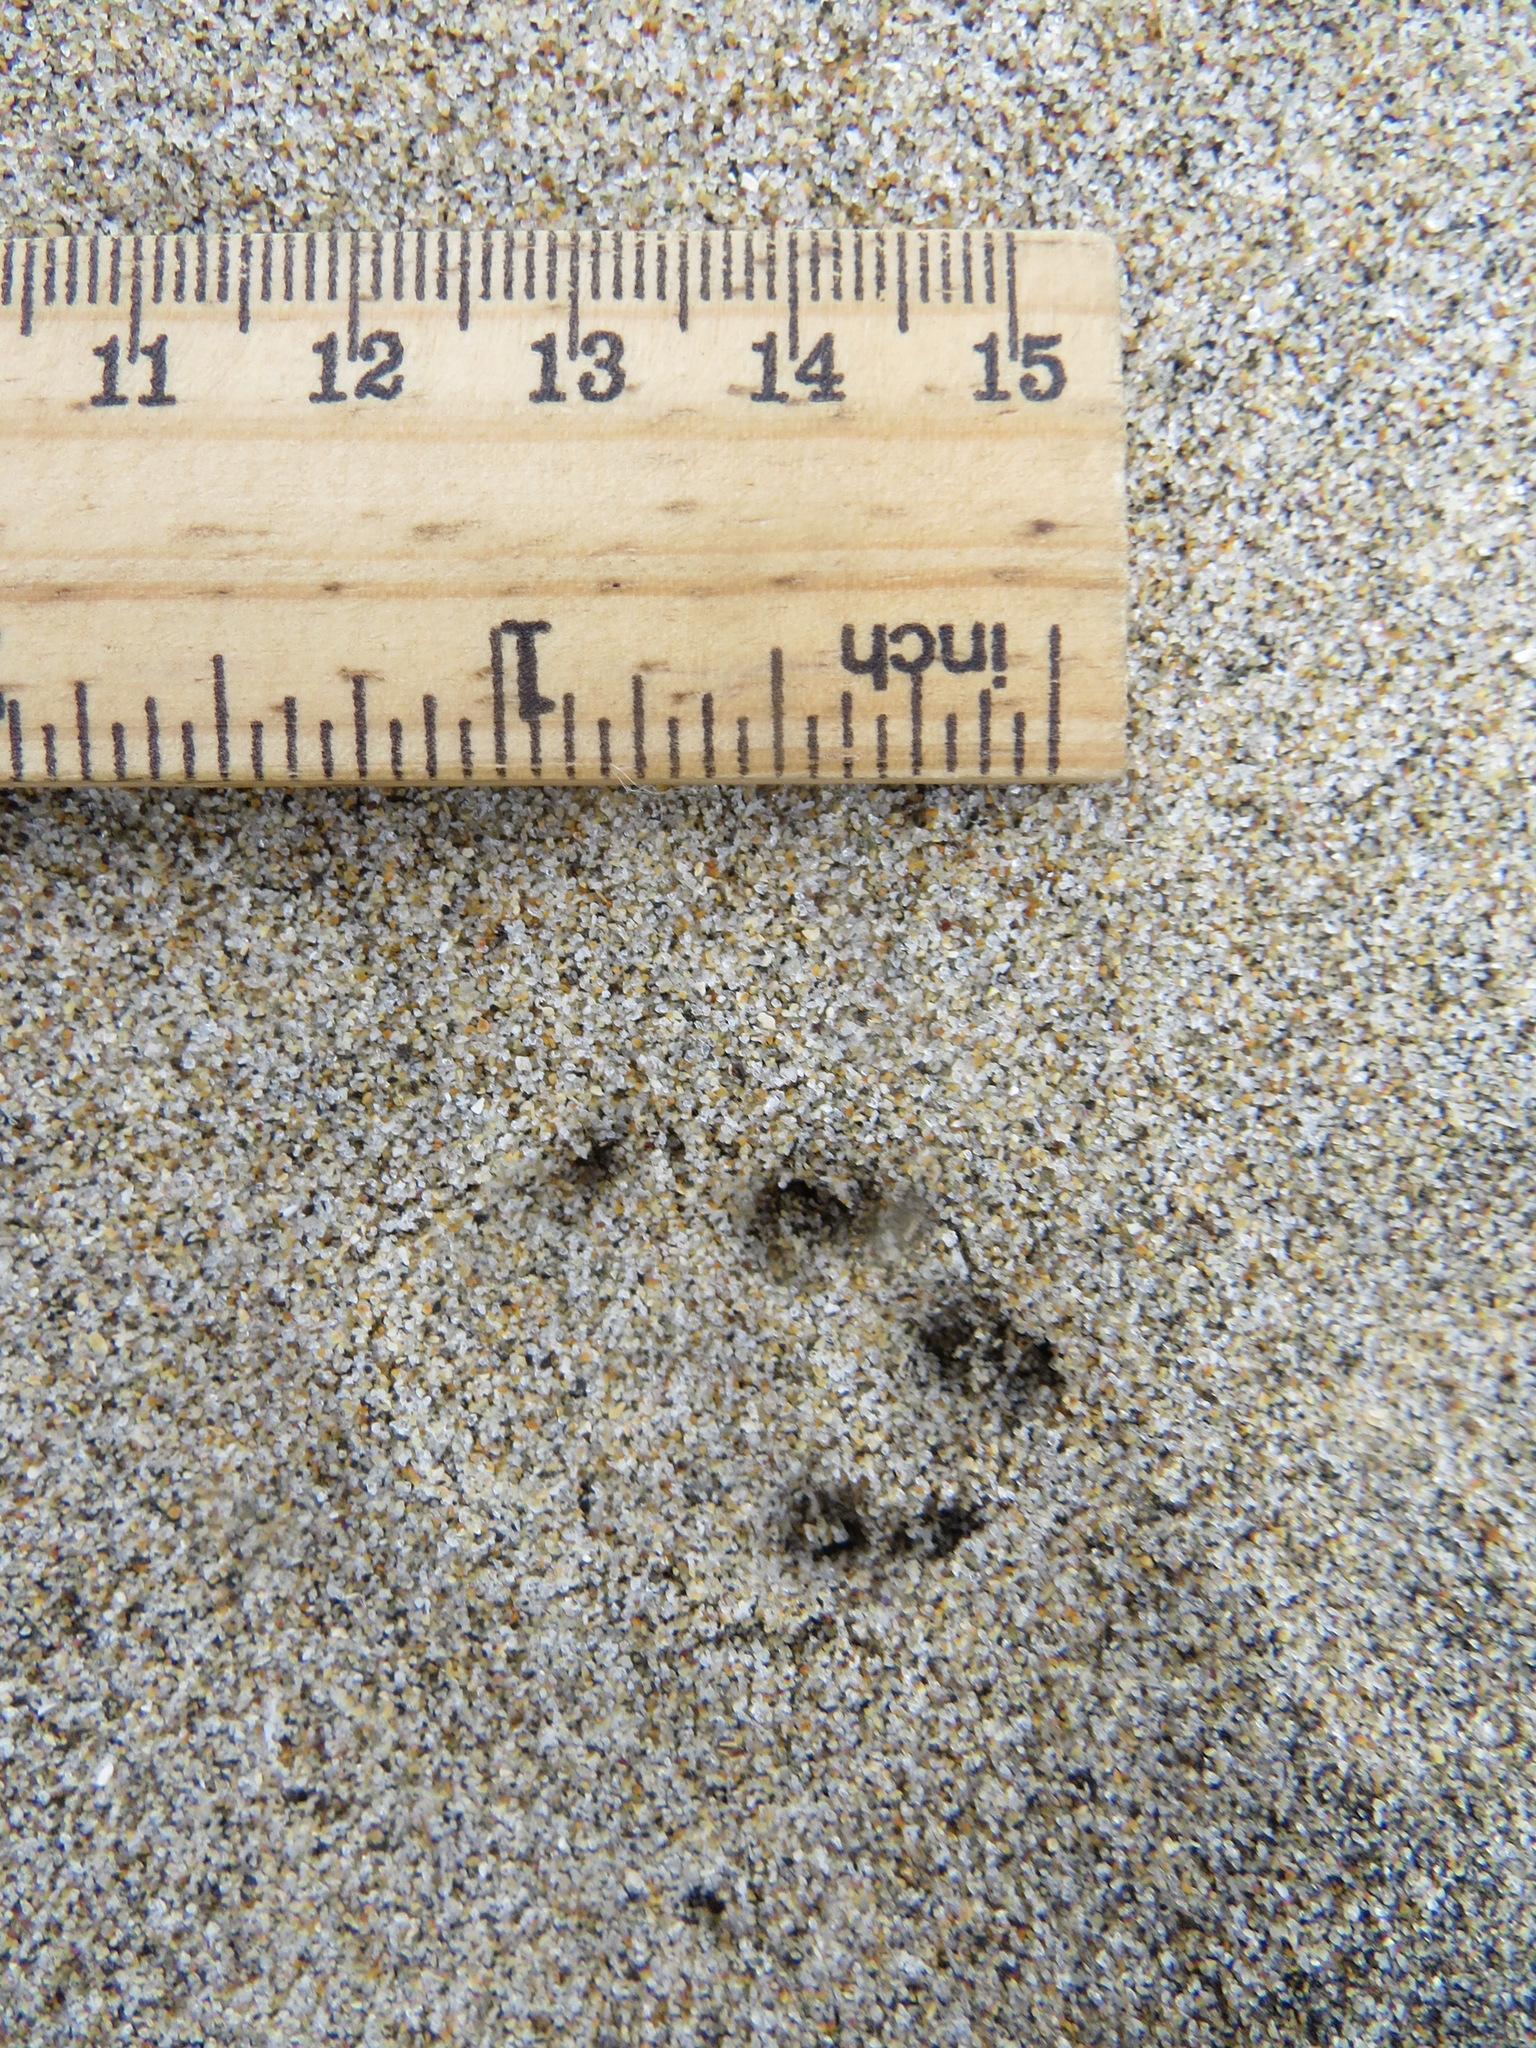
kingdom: Animalia
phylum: Chordata
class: Mammalia
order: Lagomorpha
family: Leporidae
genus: Sylvilagus
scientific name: Sylvilagus bachmani
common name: Brush rabbit
